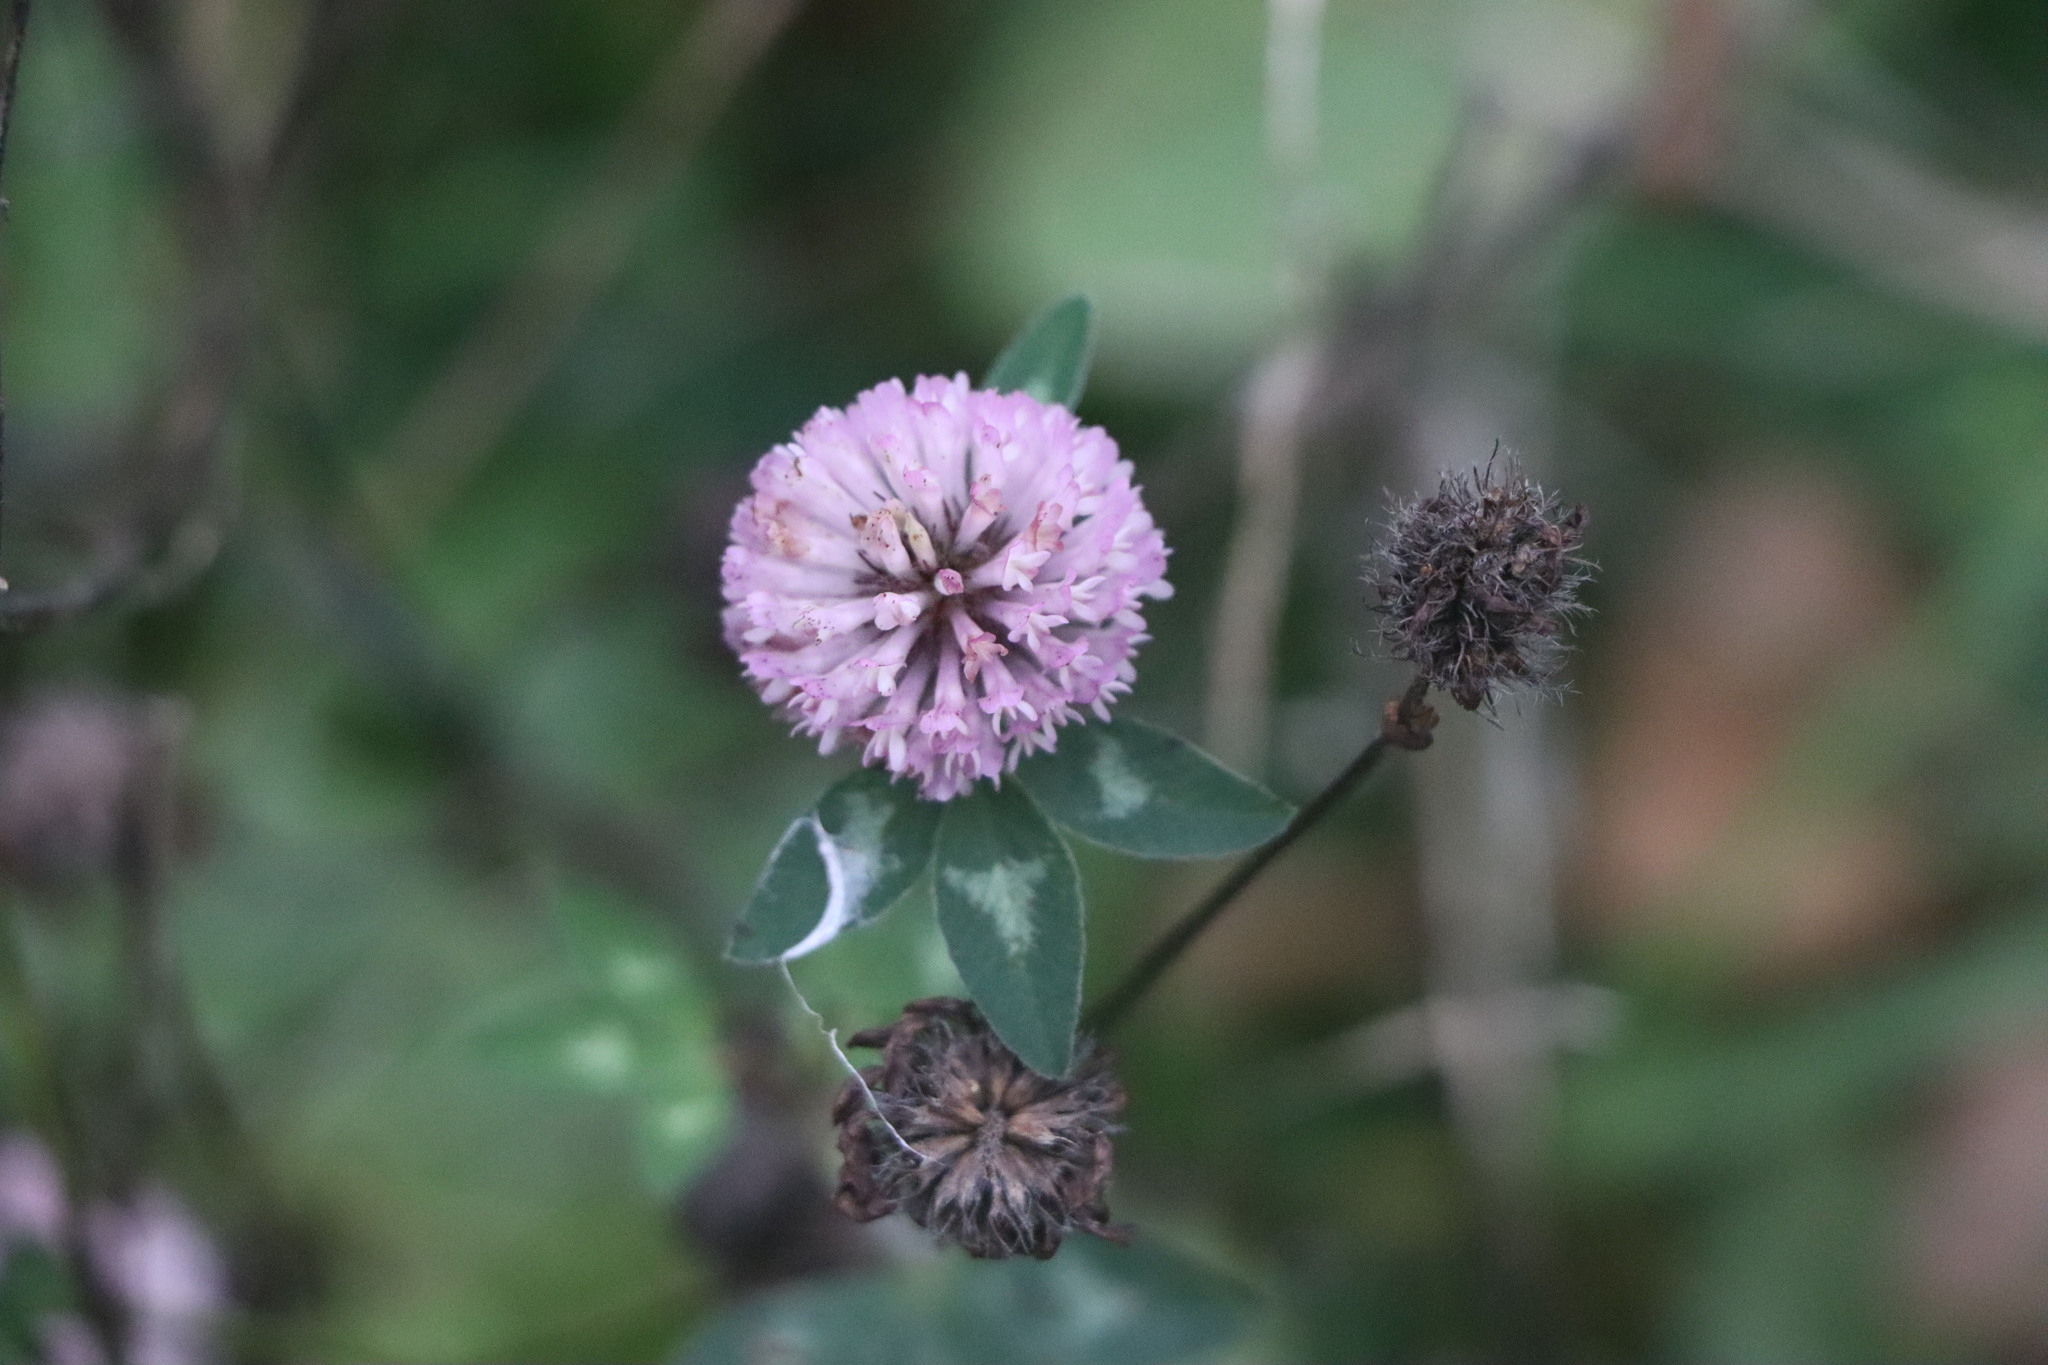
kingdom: Plantae
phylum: Tracheophyta
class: Magnoliopsida
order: Fabales
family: Fabaceae
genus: Trifolium
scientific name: Trifolium pratense
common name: Red clover
